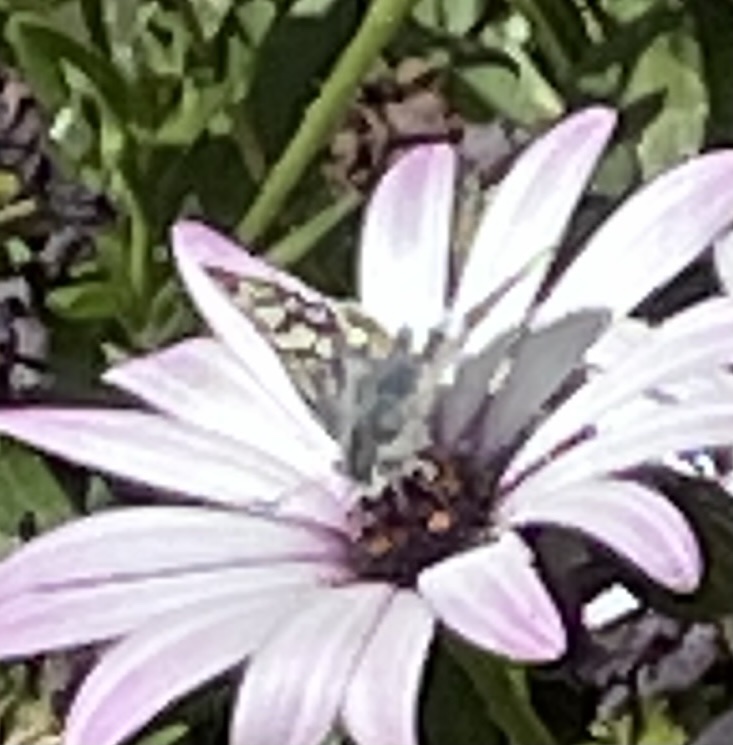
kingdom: Animalia
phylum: Arthropoda
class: Insecta
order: Lepidoptera
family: Hesperiidae
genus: Burnsius
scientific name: Burnsius communis
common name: Common checkered-skipper
